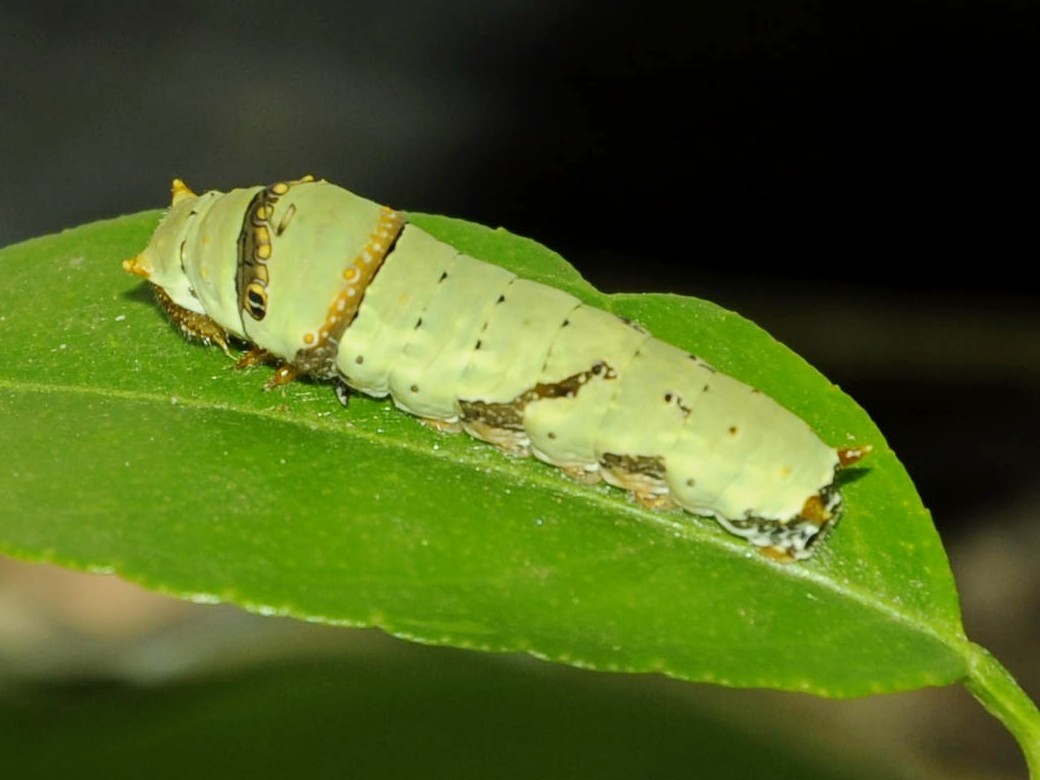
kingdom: Animalia
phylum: Arthropoda
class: Insecta
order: Lepidoptera
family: Papilionidae
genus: Papilio
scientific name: Papilio demoleus
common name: Lime butterfly
